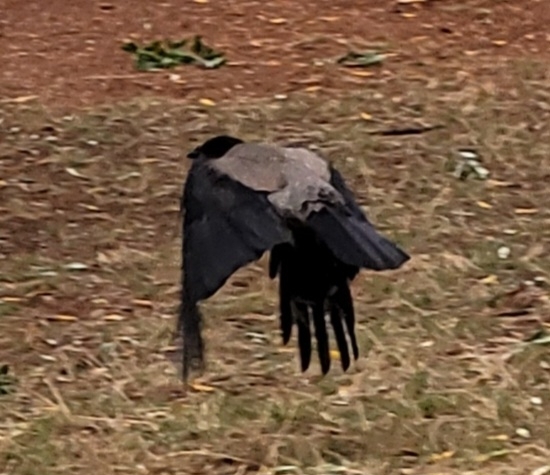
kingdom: Animalia
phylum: Chordata
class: Aves
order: Passeriformes
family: Corvidae
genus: Corvus
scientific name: Corvus cornix
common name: Hooded crow
